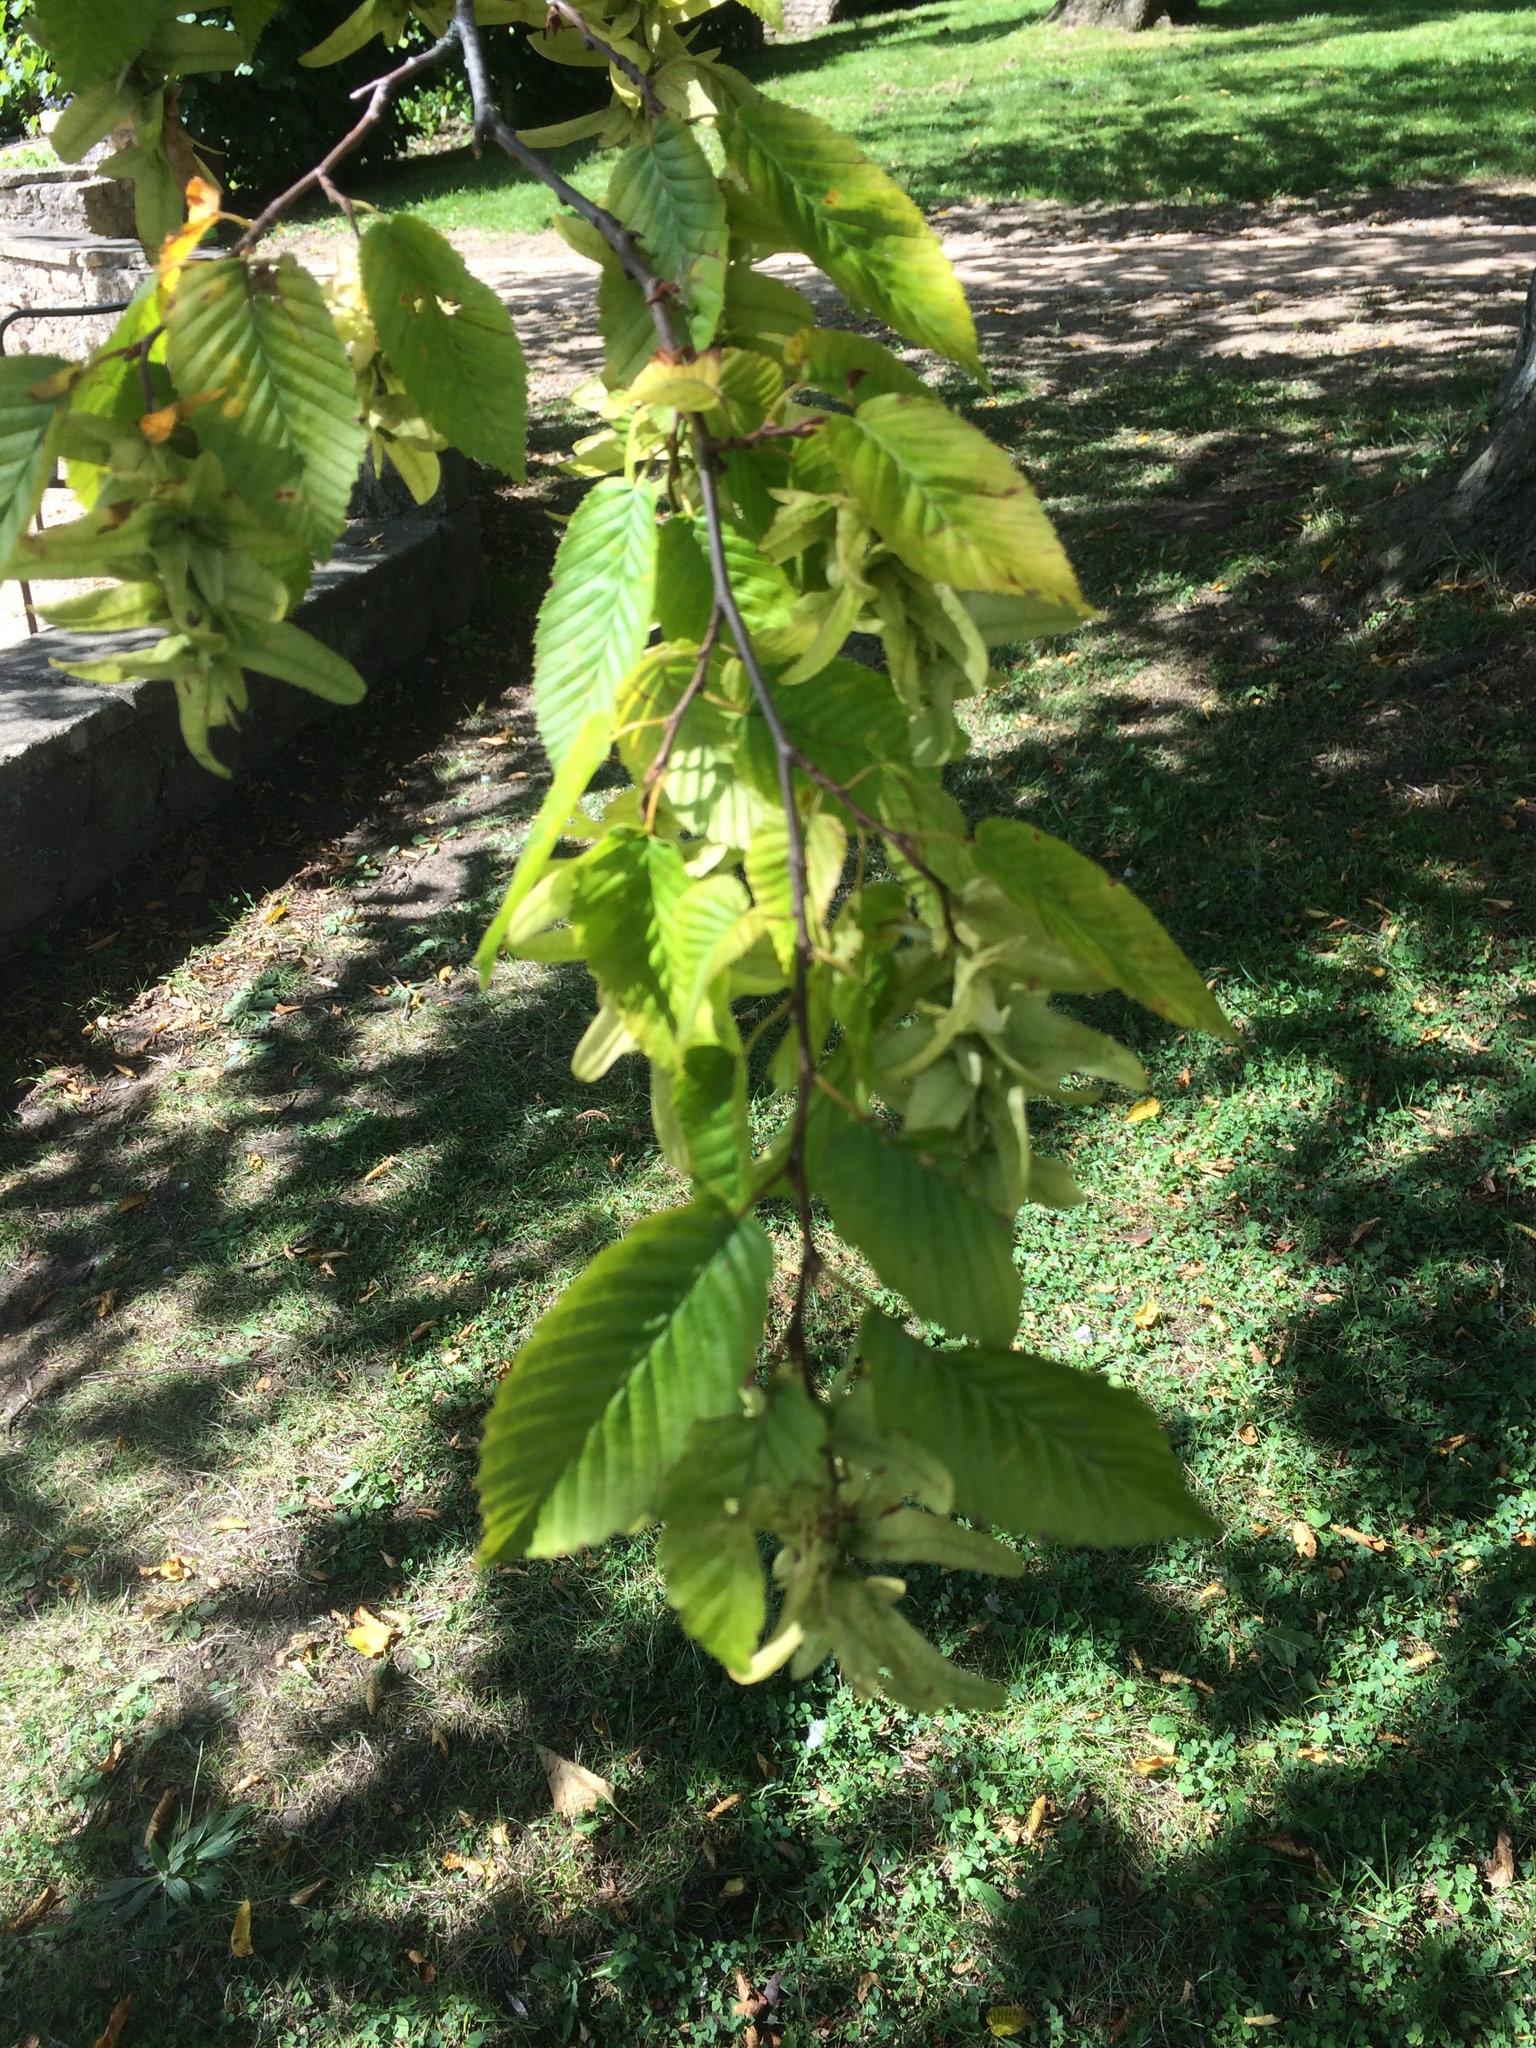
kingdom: Plantae
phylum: Tracheophyta
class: Magnoliopsida
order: Fagales
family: Betulaceae
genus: Carpinus
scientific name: Carpinus betulus
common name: Hornbeam
